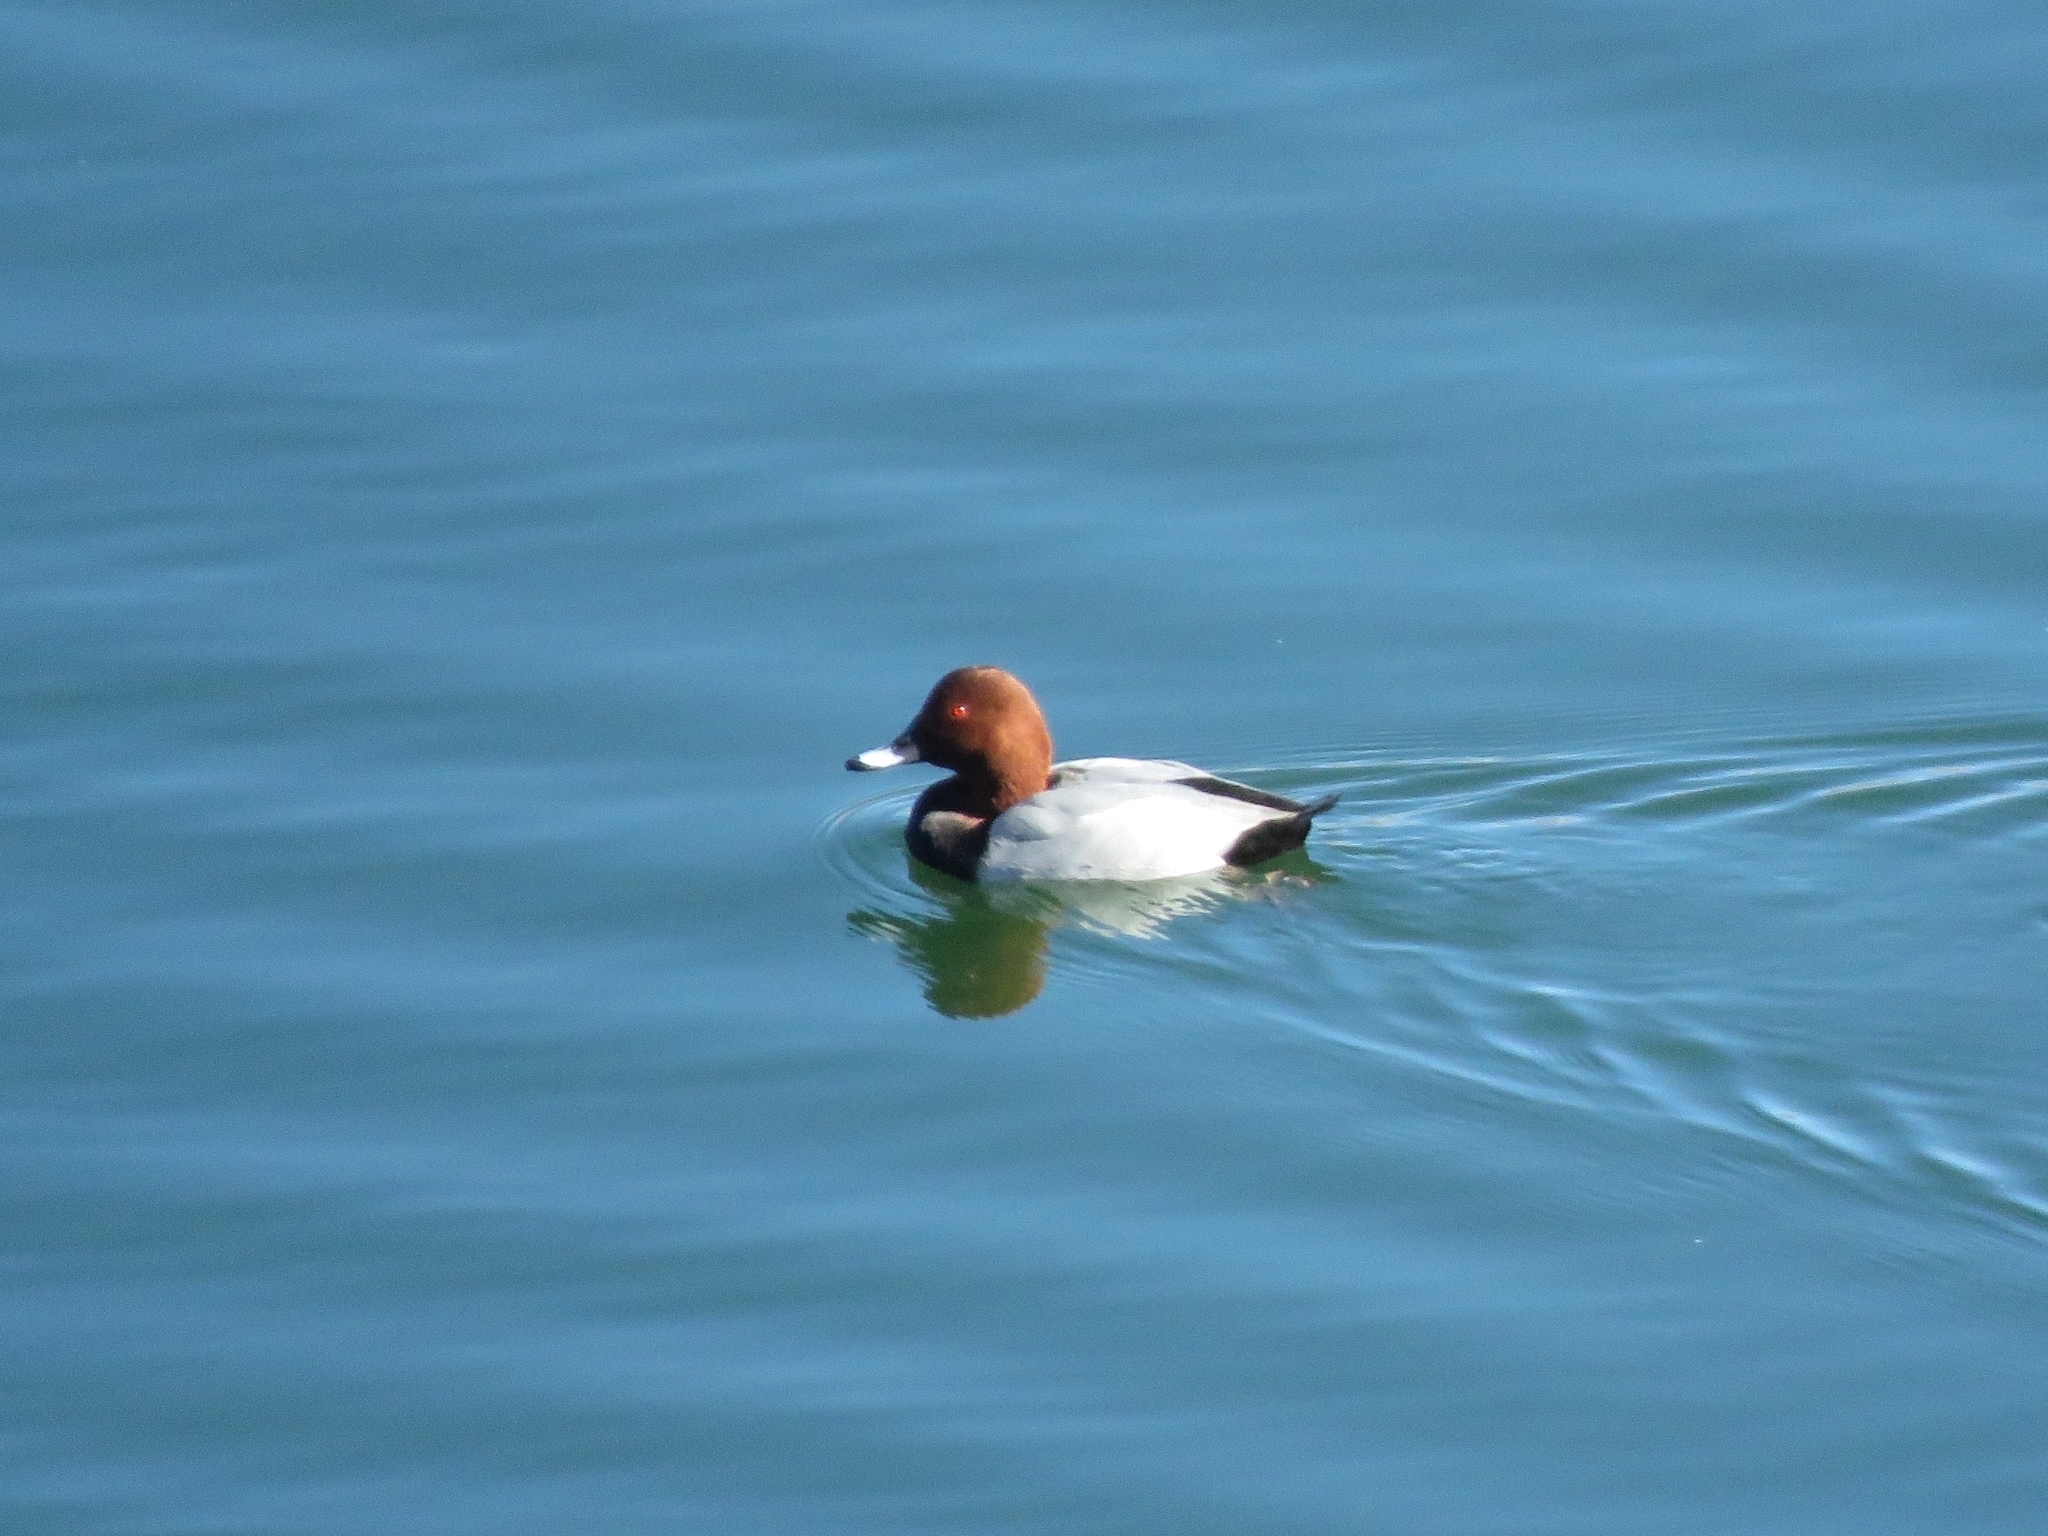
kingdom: Animalia
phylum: Chordata
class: Aves
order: Anseriformes
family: Anatidae
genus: Aythya
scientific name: Aythya ferina
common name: Common pochard
